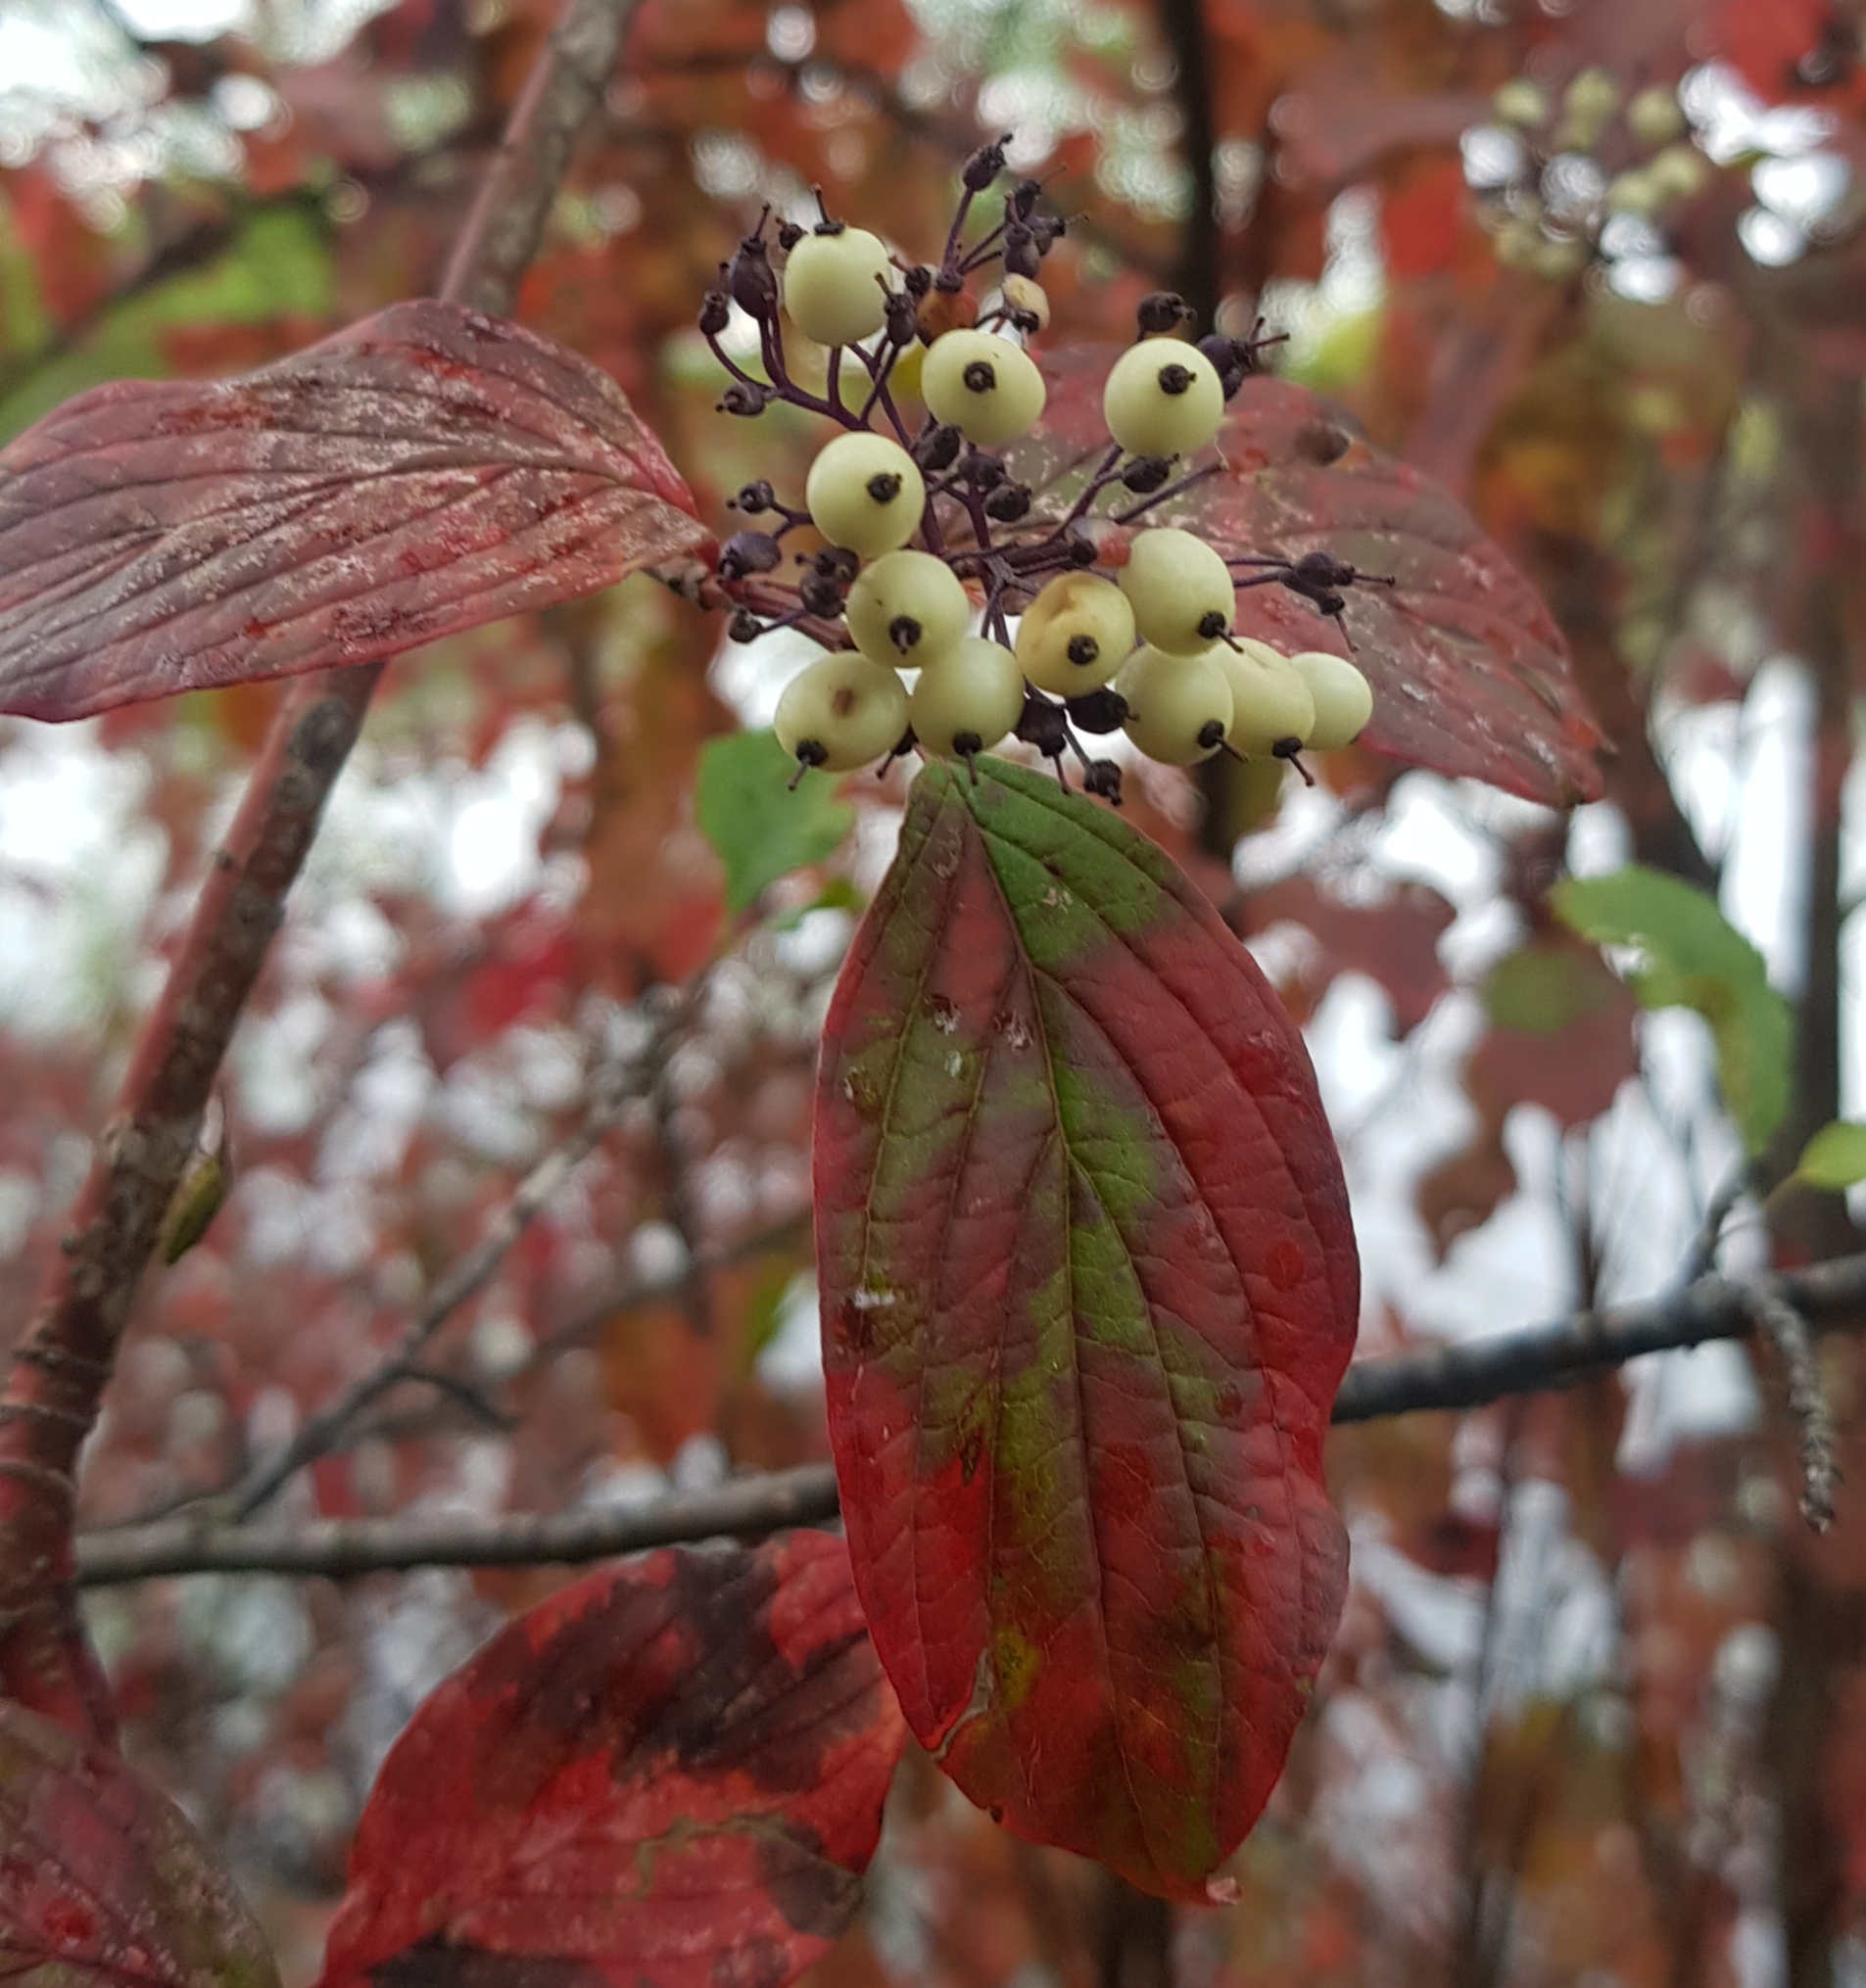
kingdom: Plantae
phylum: Tracheophyta
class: Magnoliopsida
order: Cornales
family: Cornaceae
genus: Cornus
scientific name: Cornus alba
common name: White dogwood
